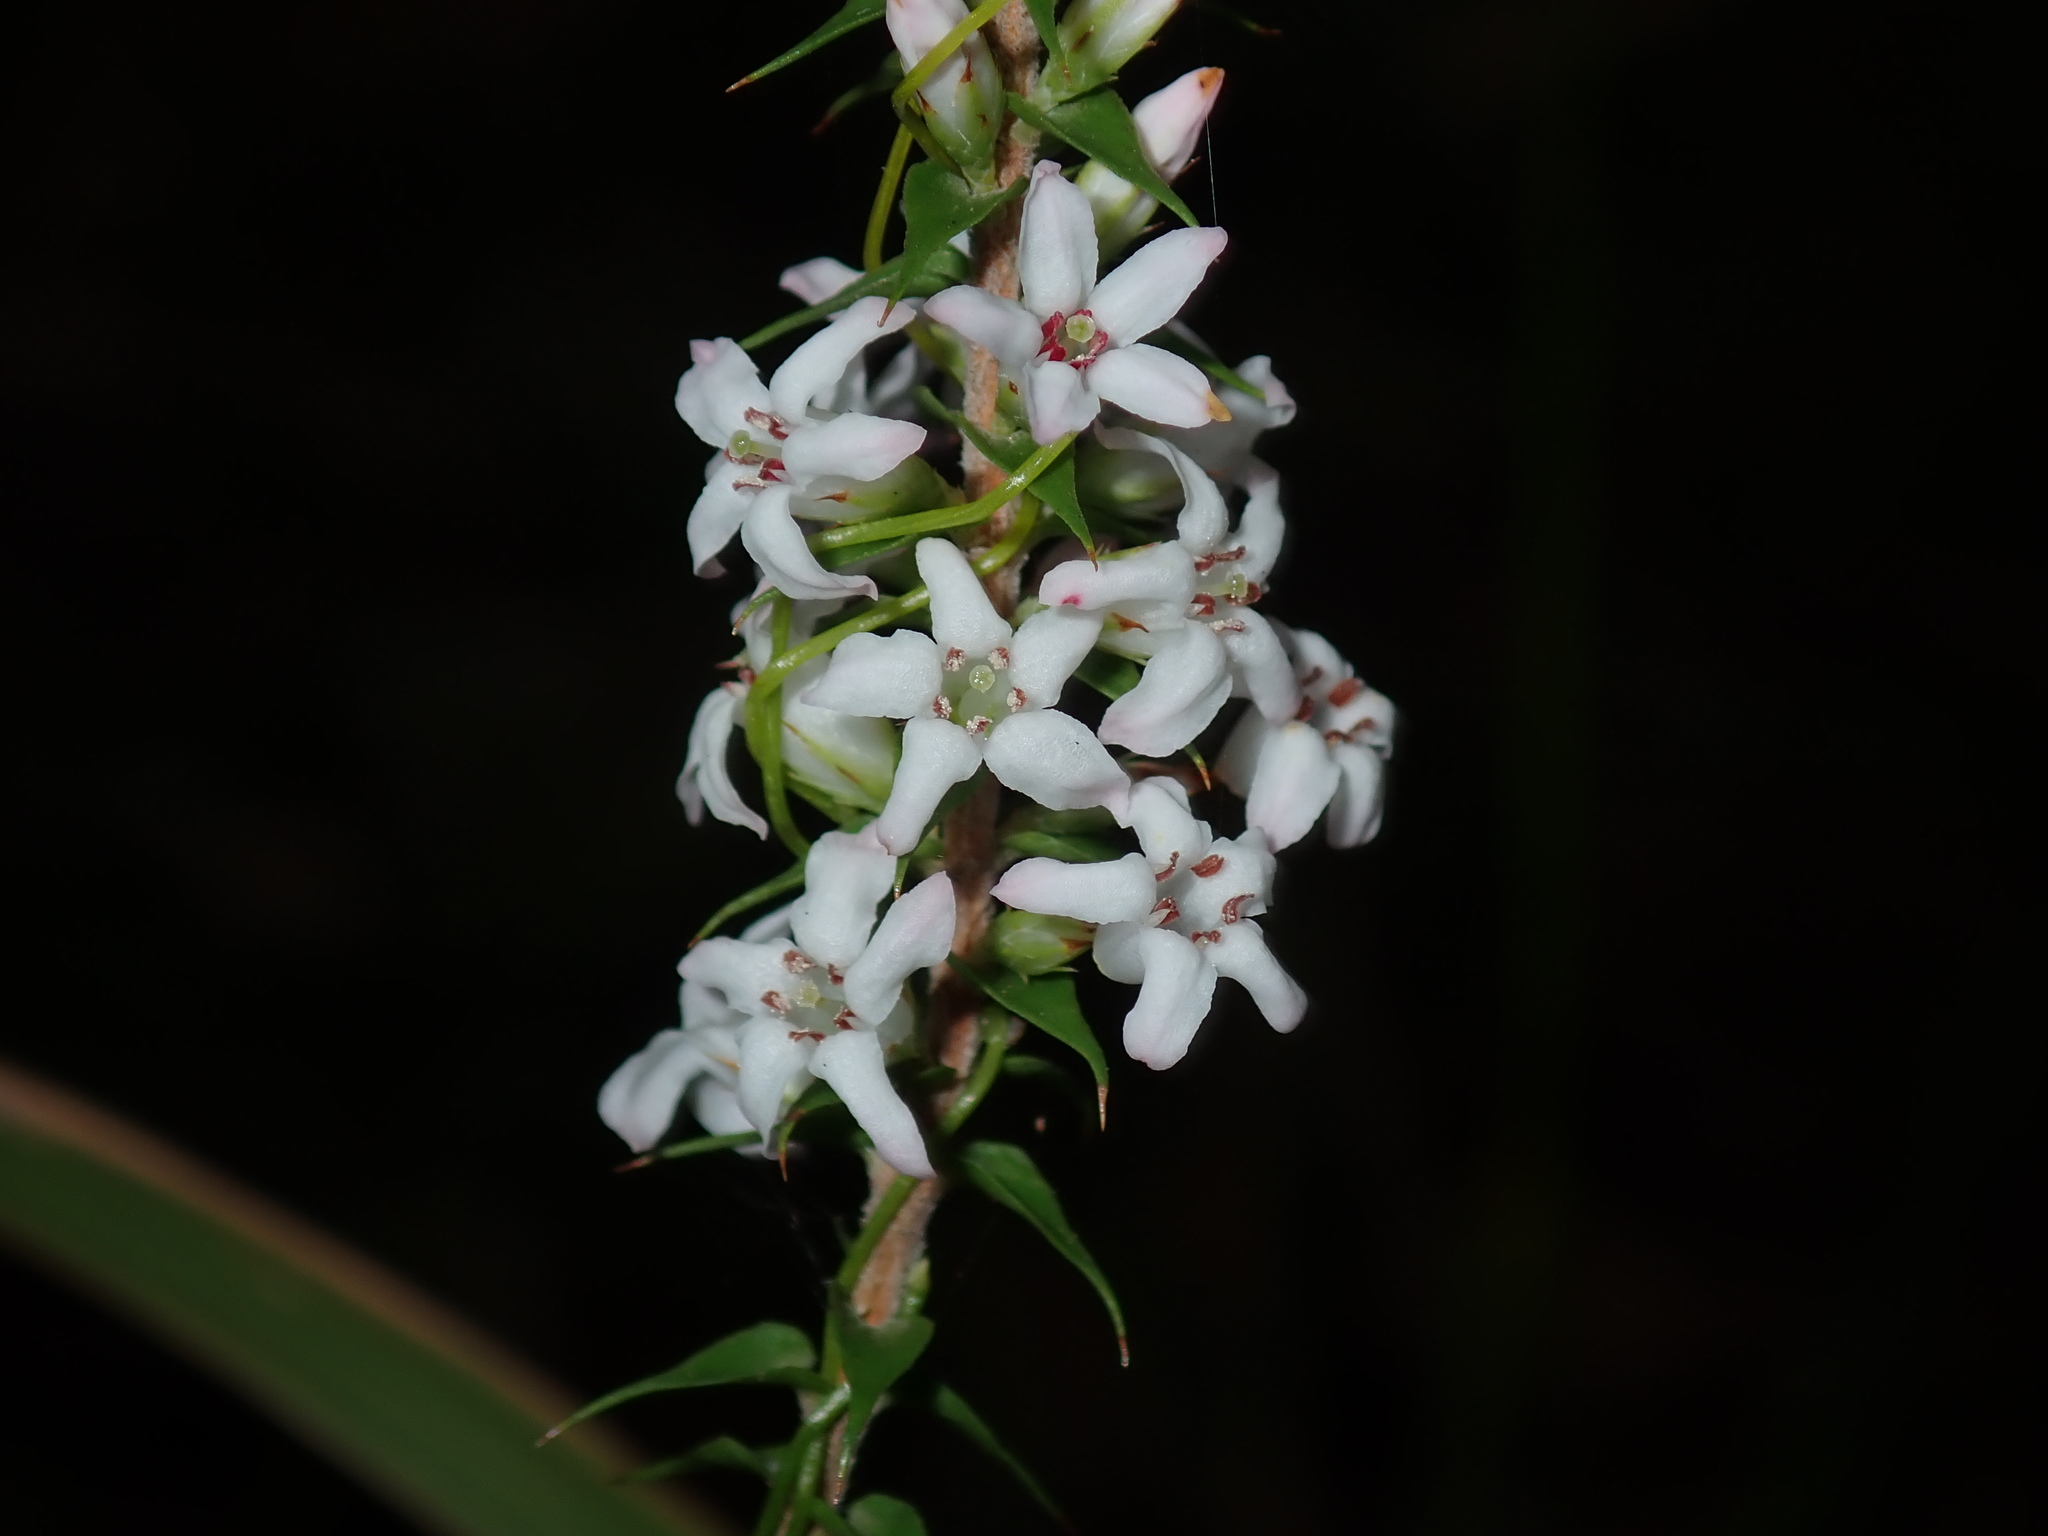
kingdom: Plantae
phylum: Tracheophyta
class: Magnoliopsida
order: Ericales
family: Ericaceae
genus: Epacris
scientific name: Epacris pulchella
